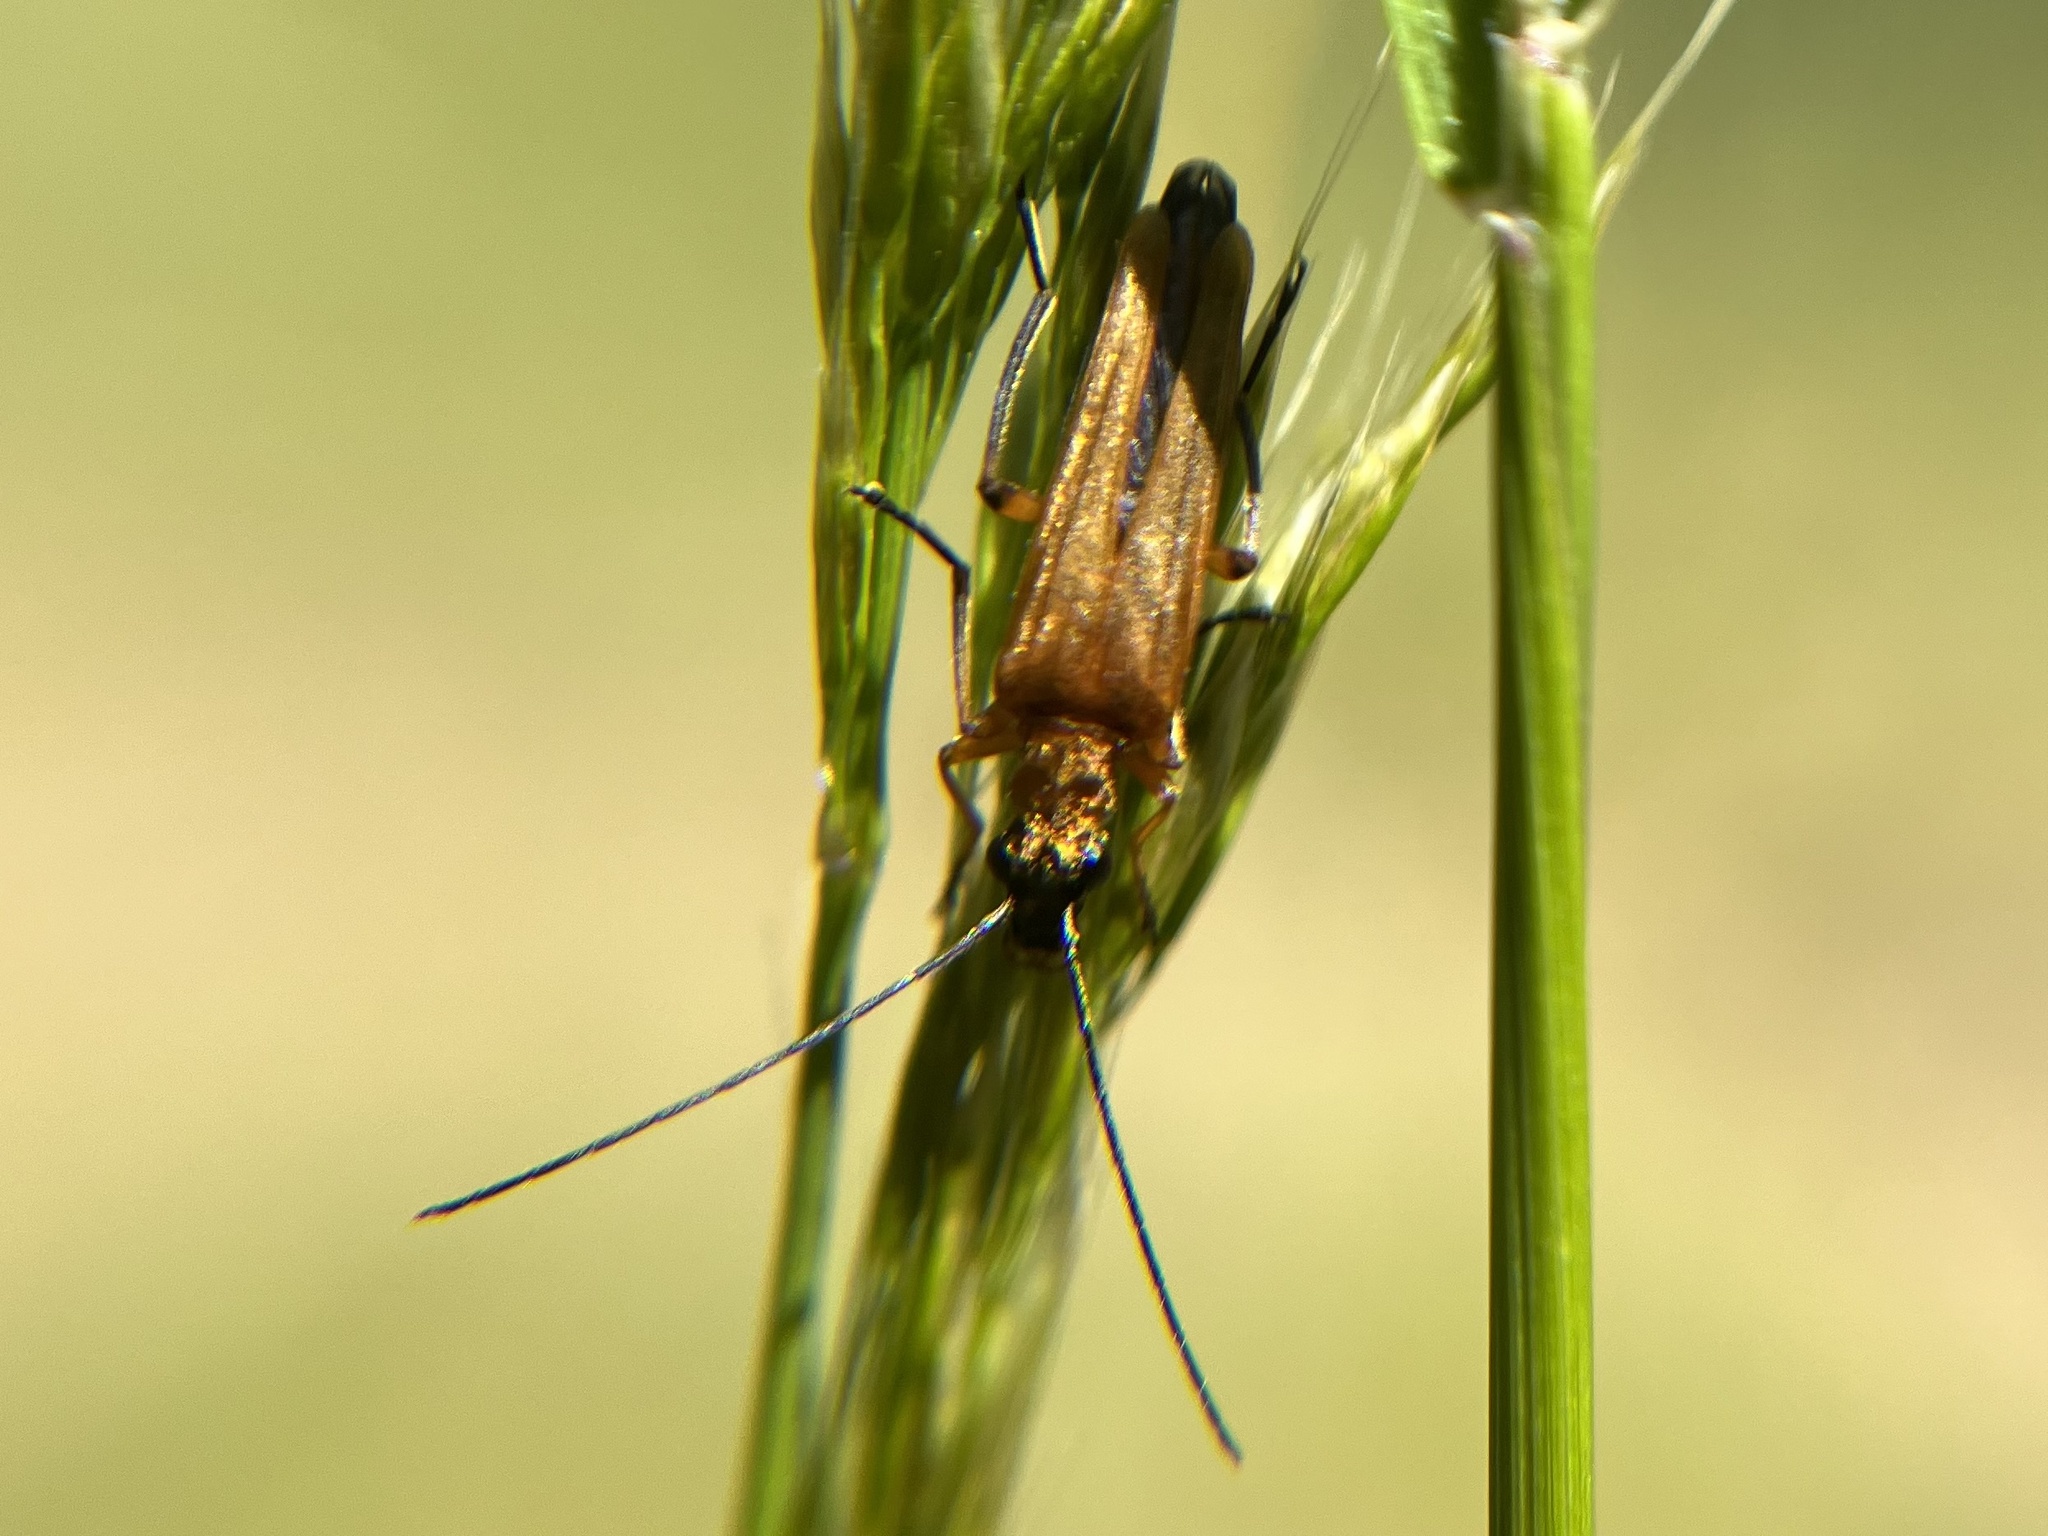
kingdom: Animalia
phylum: Arthropoda
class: Insecta
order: Coleoptera
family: Oedemeridae
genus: Oedemera
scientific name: Oedemera podagrariae
